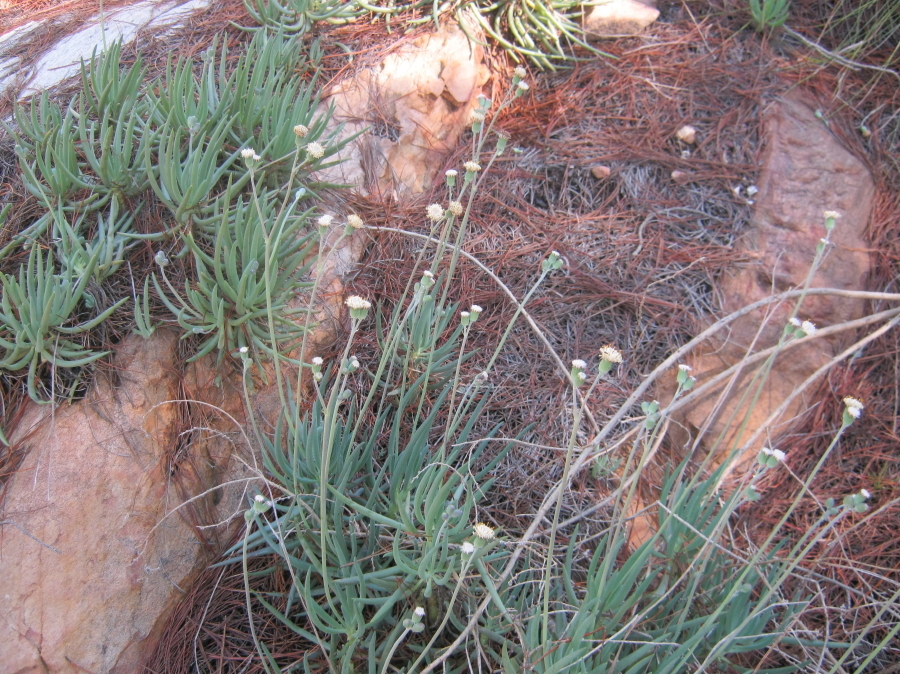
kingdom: Plantae
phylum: Tracheophyta
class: Magnoliopsida
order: Asterales
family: Asteraceae
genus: Curio
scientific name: Curio talinoides
